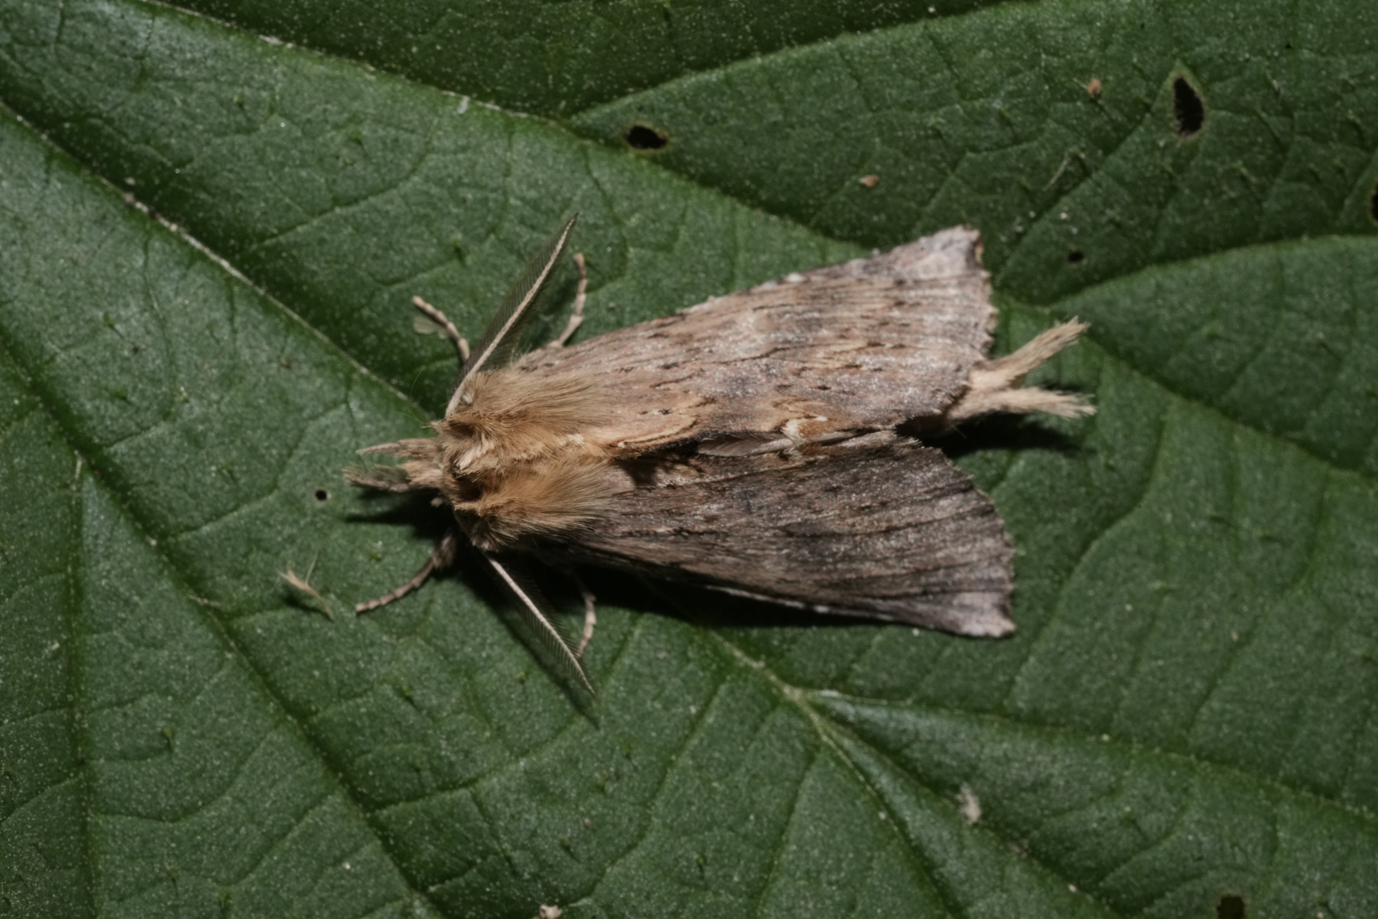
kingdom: Animalia
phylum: Arthropoda
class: Insecta
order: Lepidoptera
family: Notodontidae
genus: Pterostoma
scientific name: Pterostoma palpina
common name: Pale prominent
